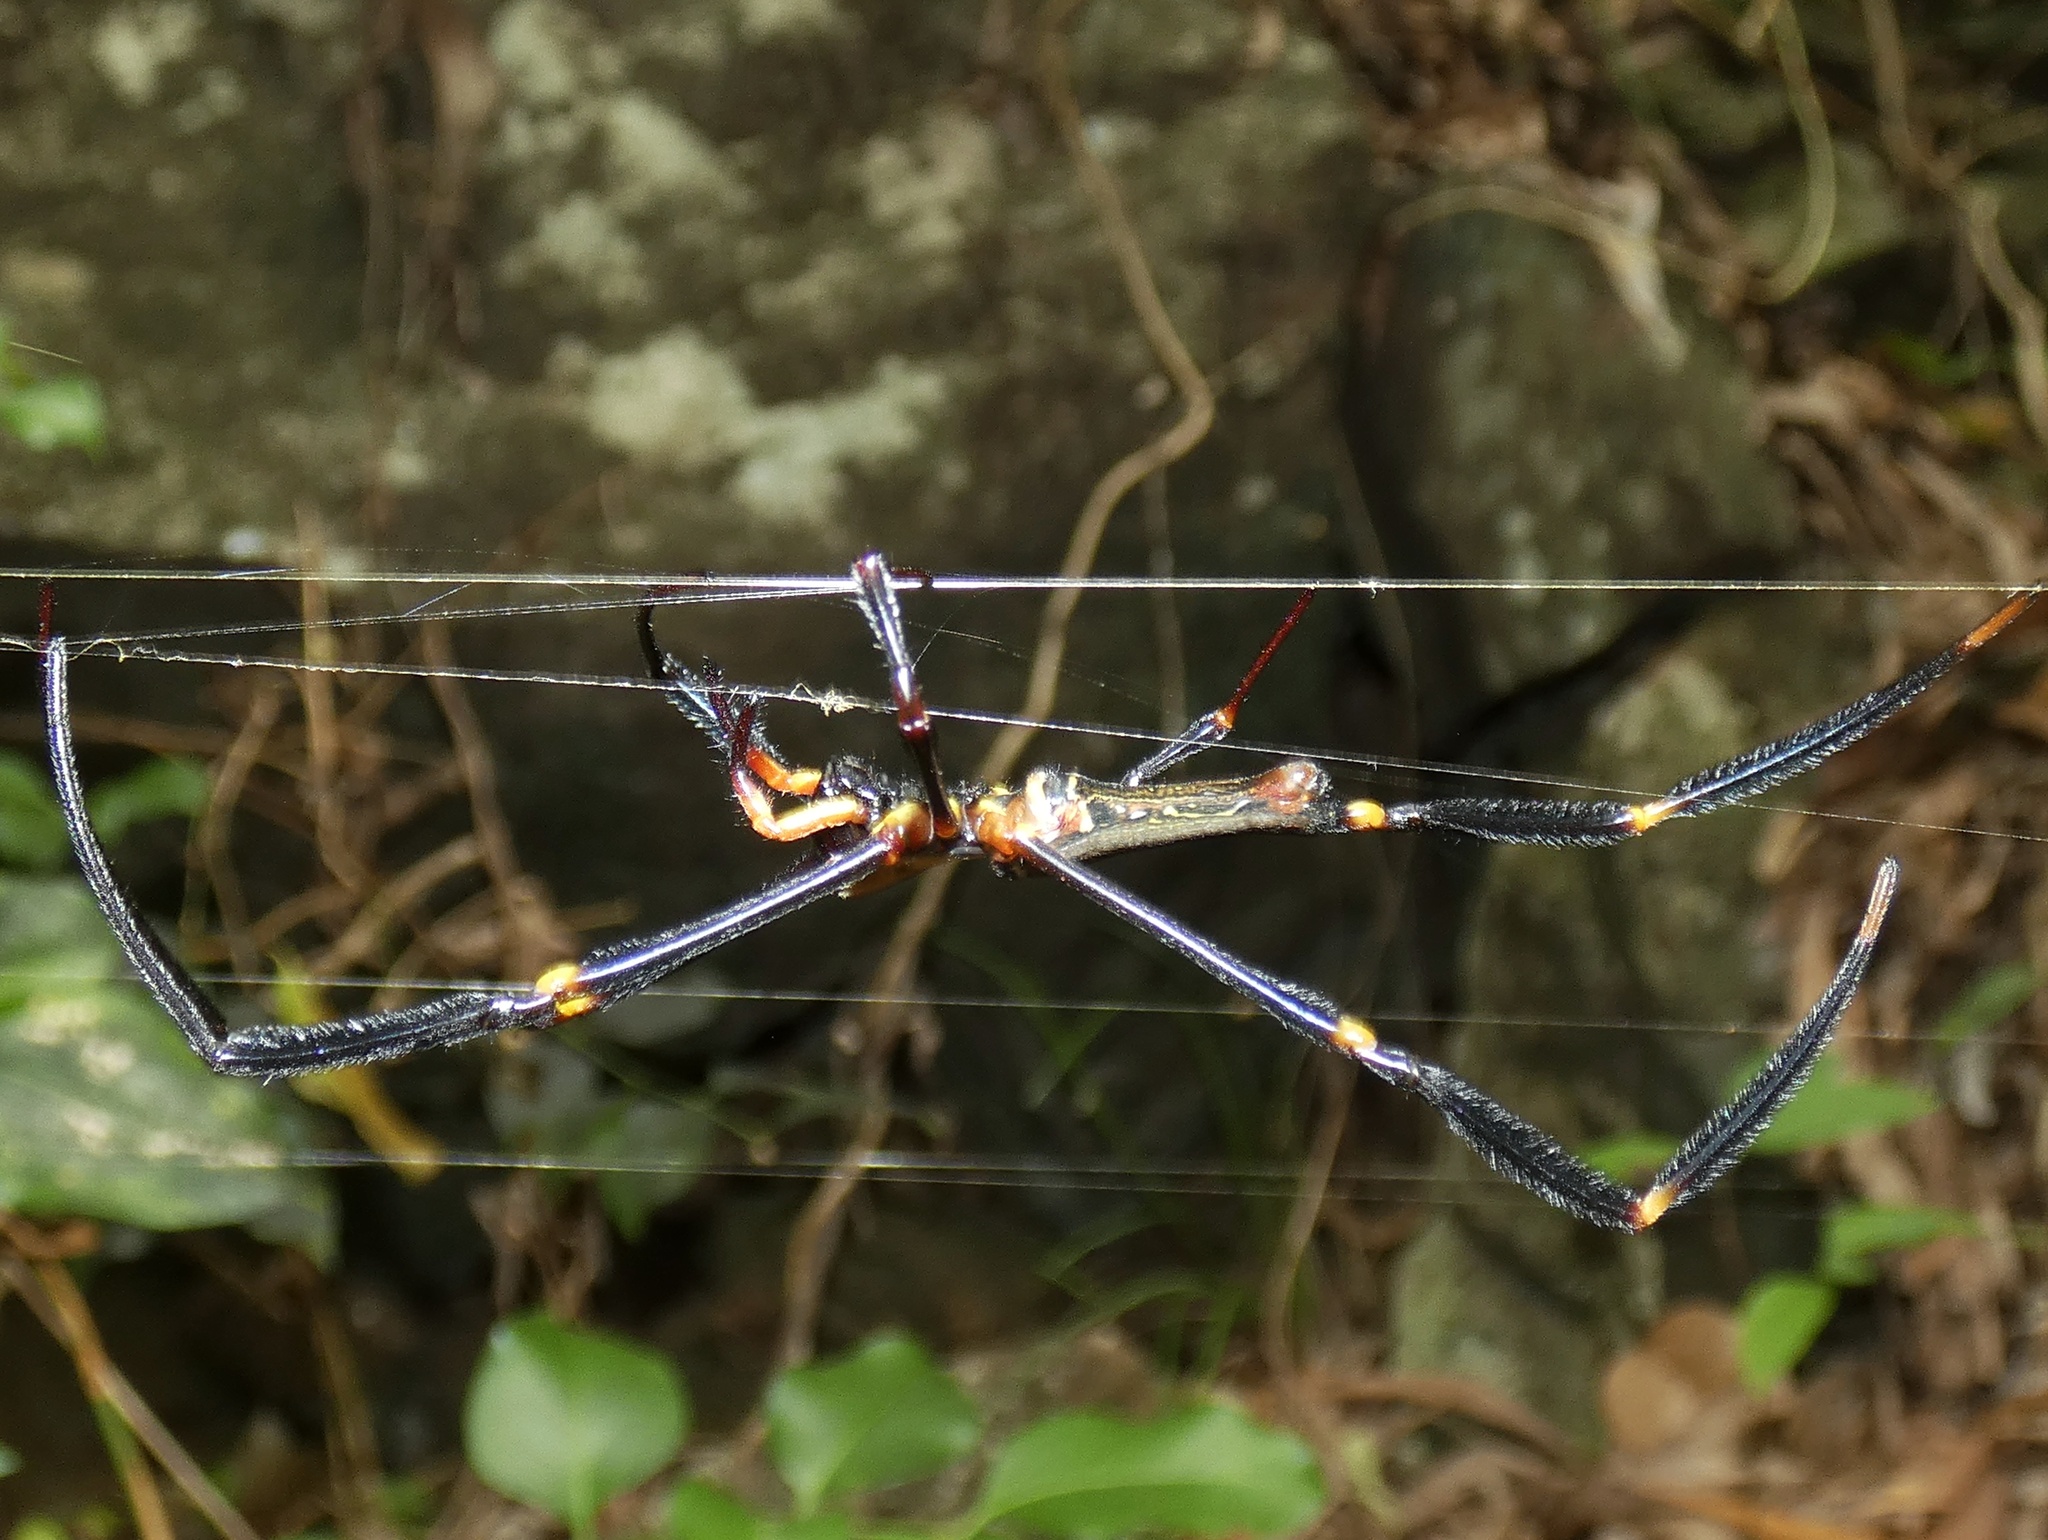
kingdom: Animalia
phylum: Arthropoda
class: Arachnida
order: Araneae
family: Araneidae
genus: Nephila
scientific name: Nephila pilipes
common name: Giant golden orb weaver
